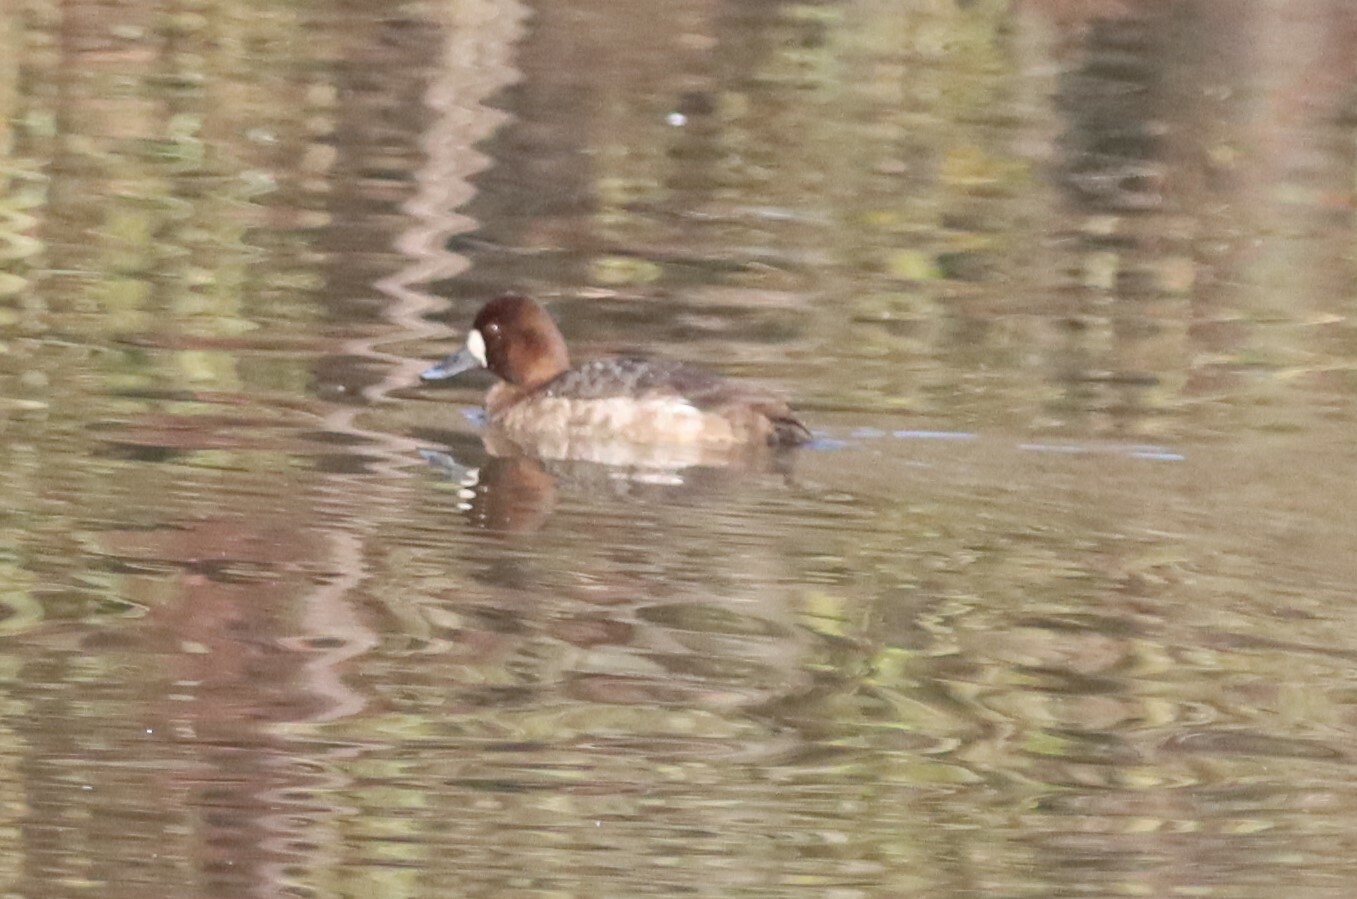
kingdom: Animalia
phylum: Chordata
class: Aves
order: Anseriformes
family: Anatidae
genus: Aythya
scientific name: Aythya affinis
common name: Lesser scaup
